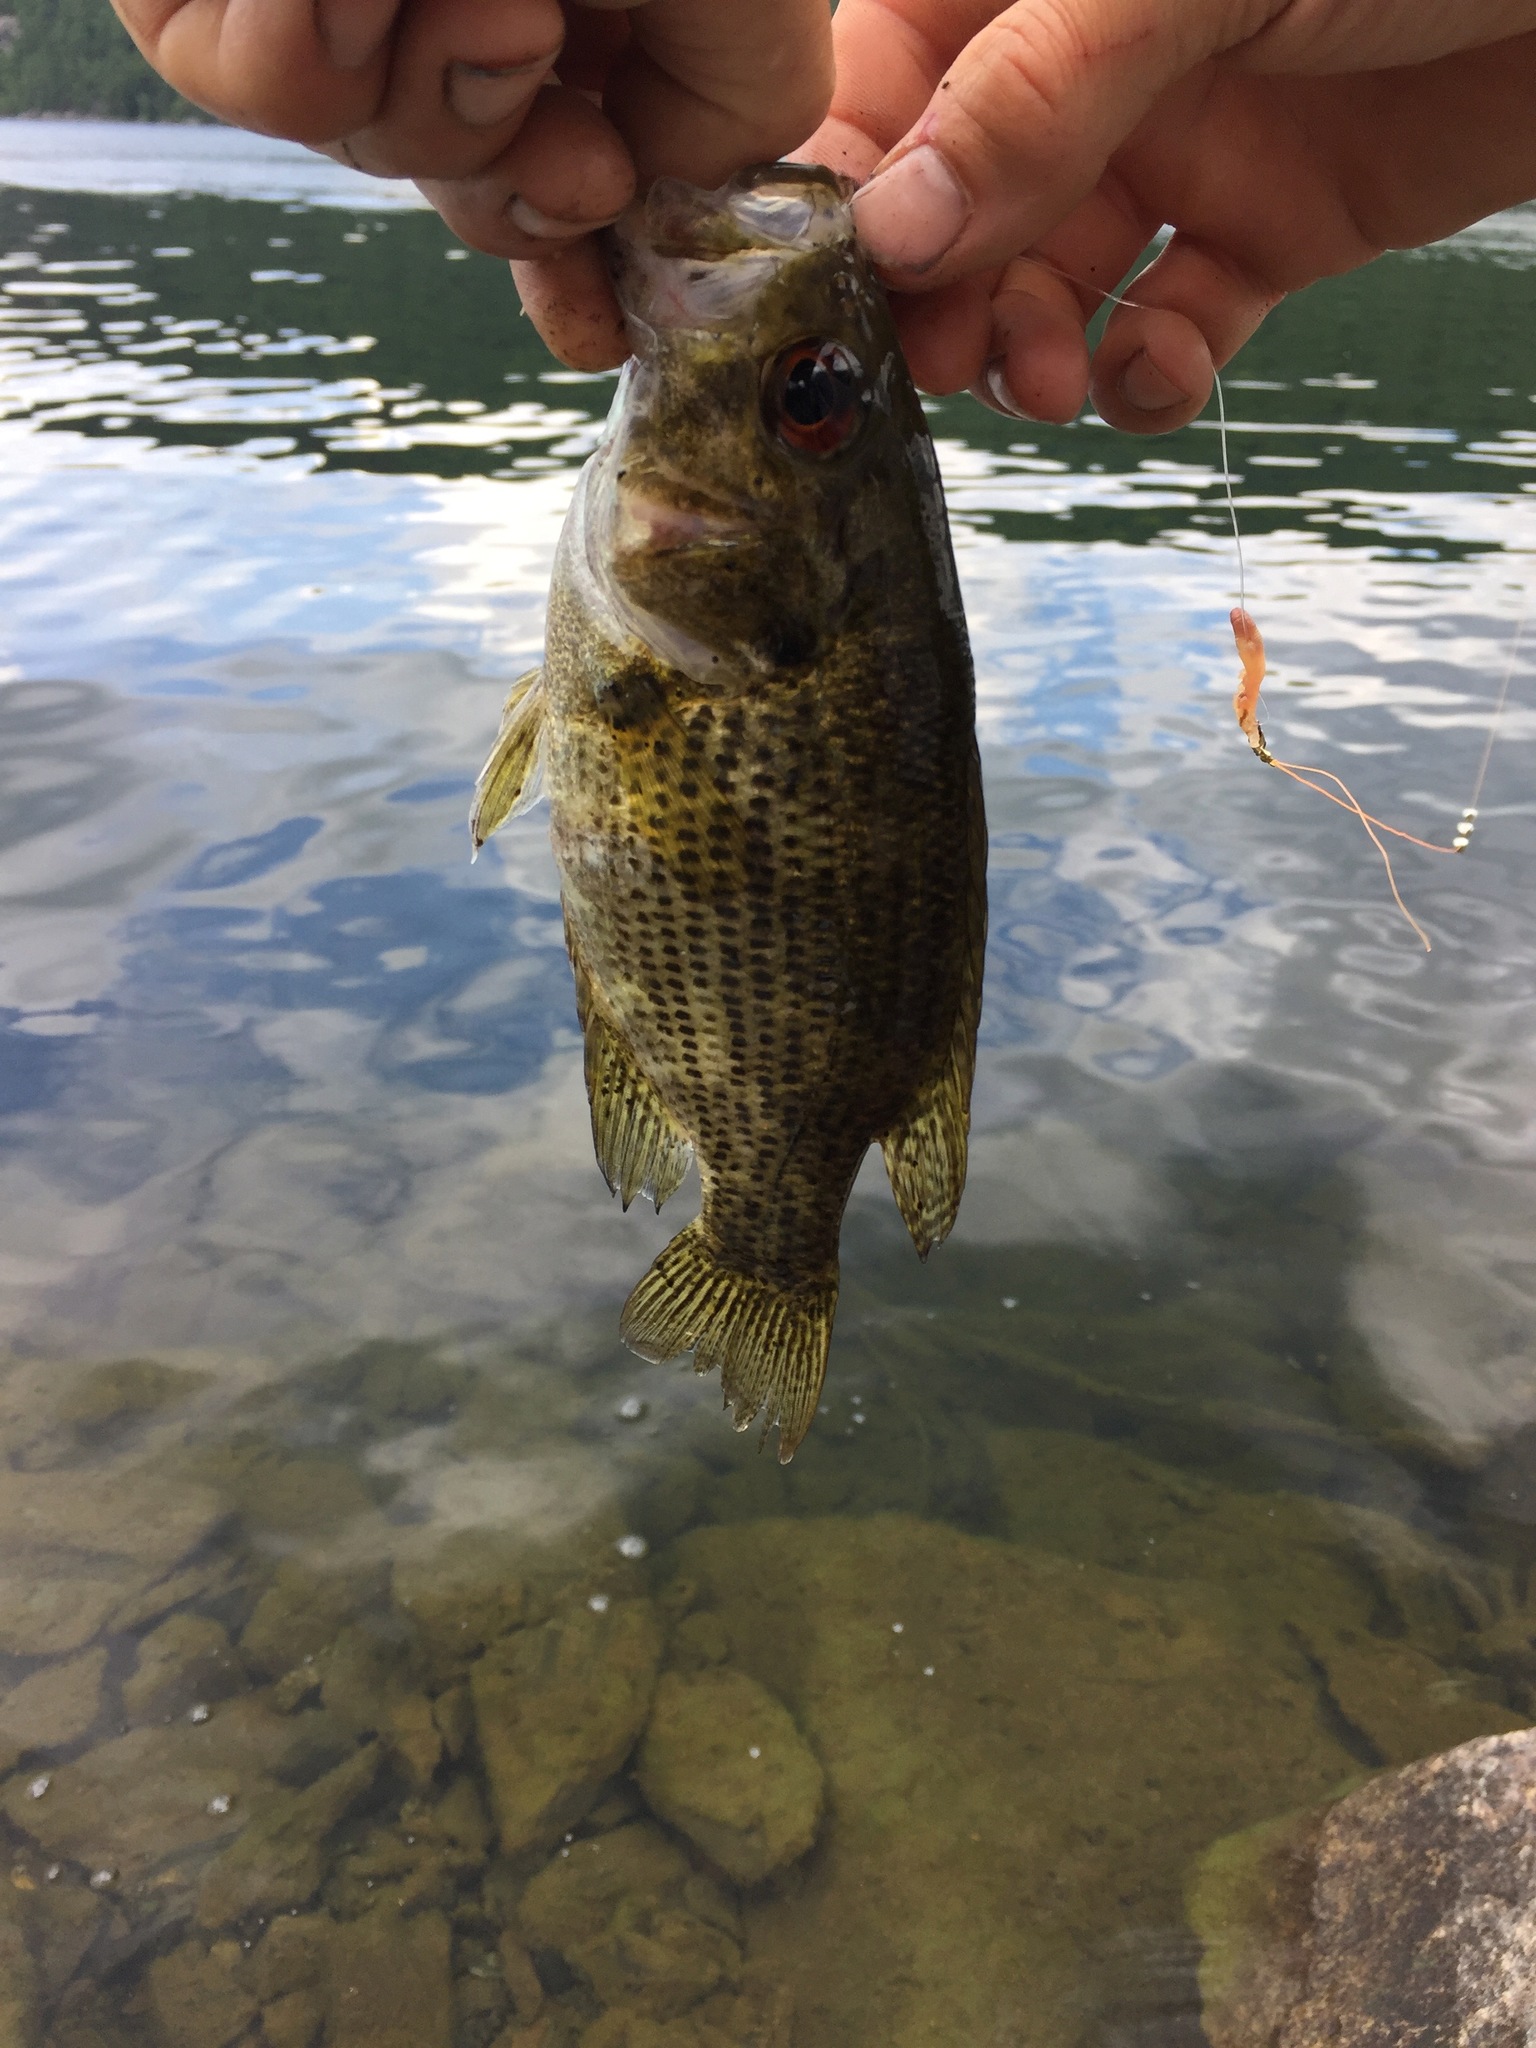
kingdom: Animalia
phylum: Chordata
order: Perciformes
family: Centrarchidae
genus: Ambloplites
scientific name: Ambloplites rupestris
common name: Rock bass
